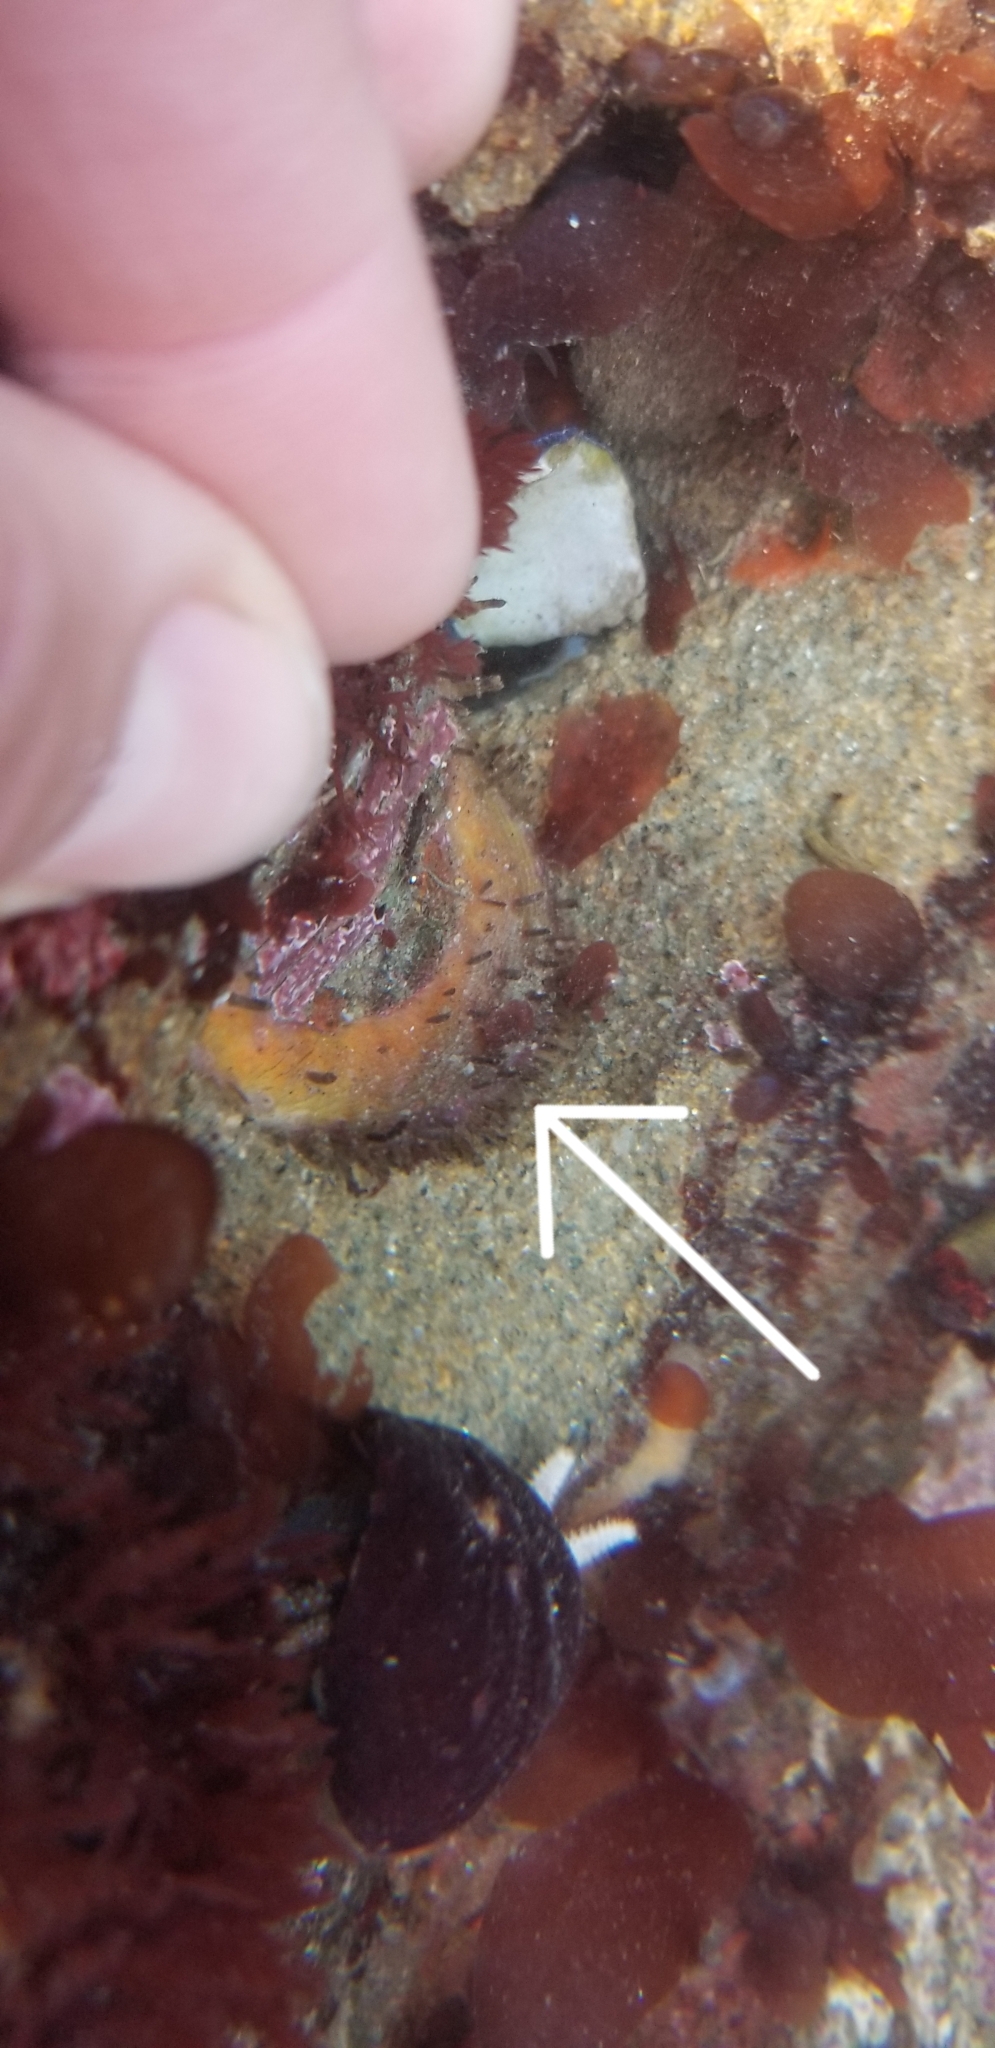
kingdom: Animalia
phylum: Mollusca
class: Polyplacophora
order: Chitonida
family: Mopaliidae
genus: Placiphorella
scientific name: Placiphorella velata
